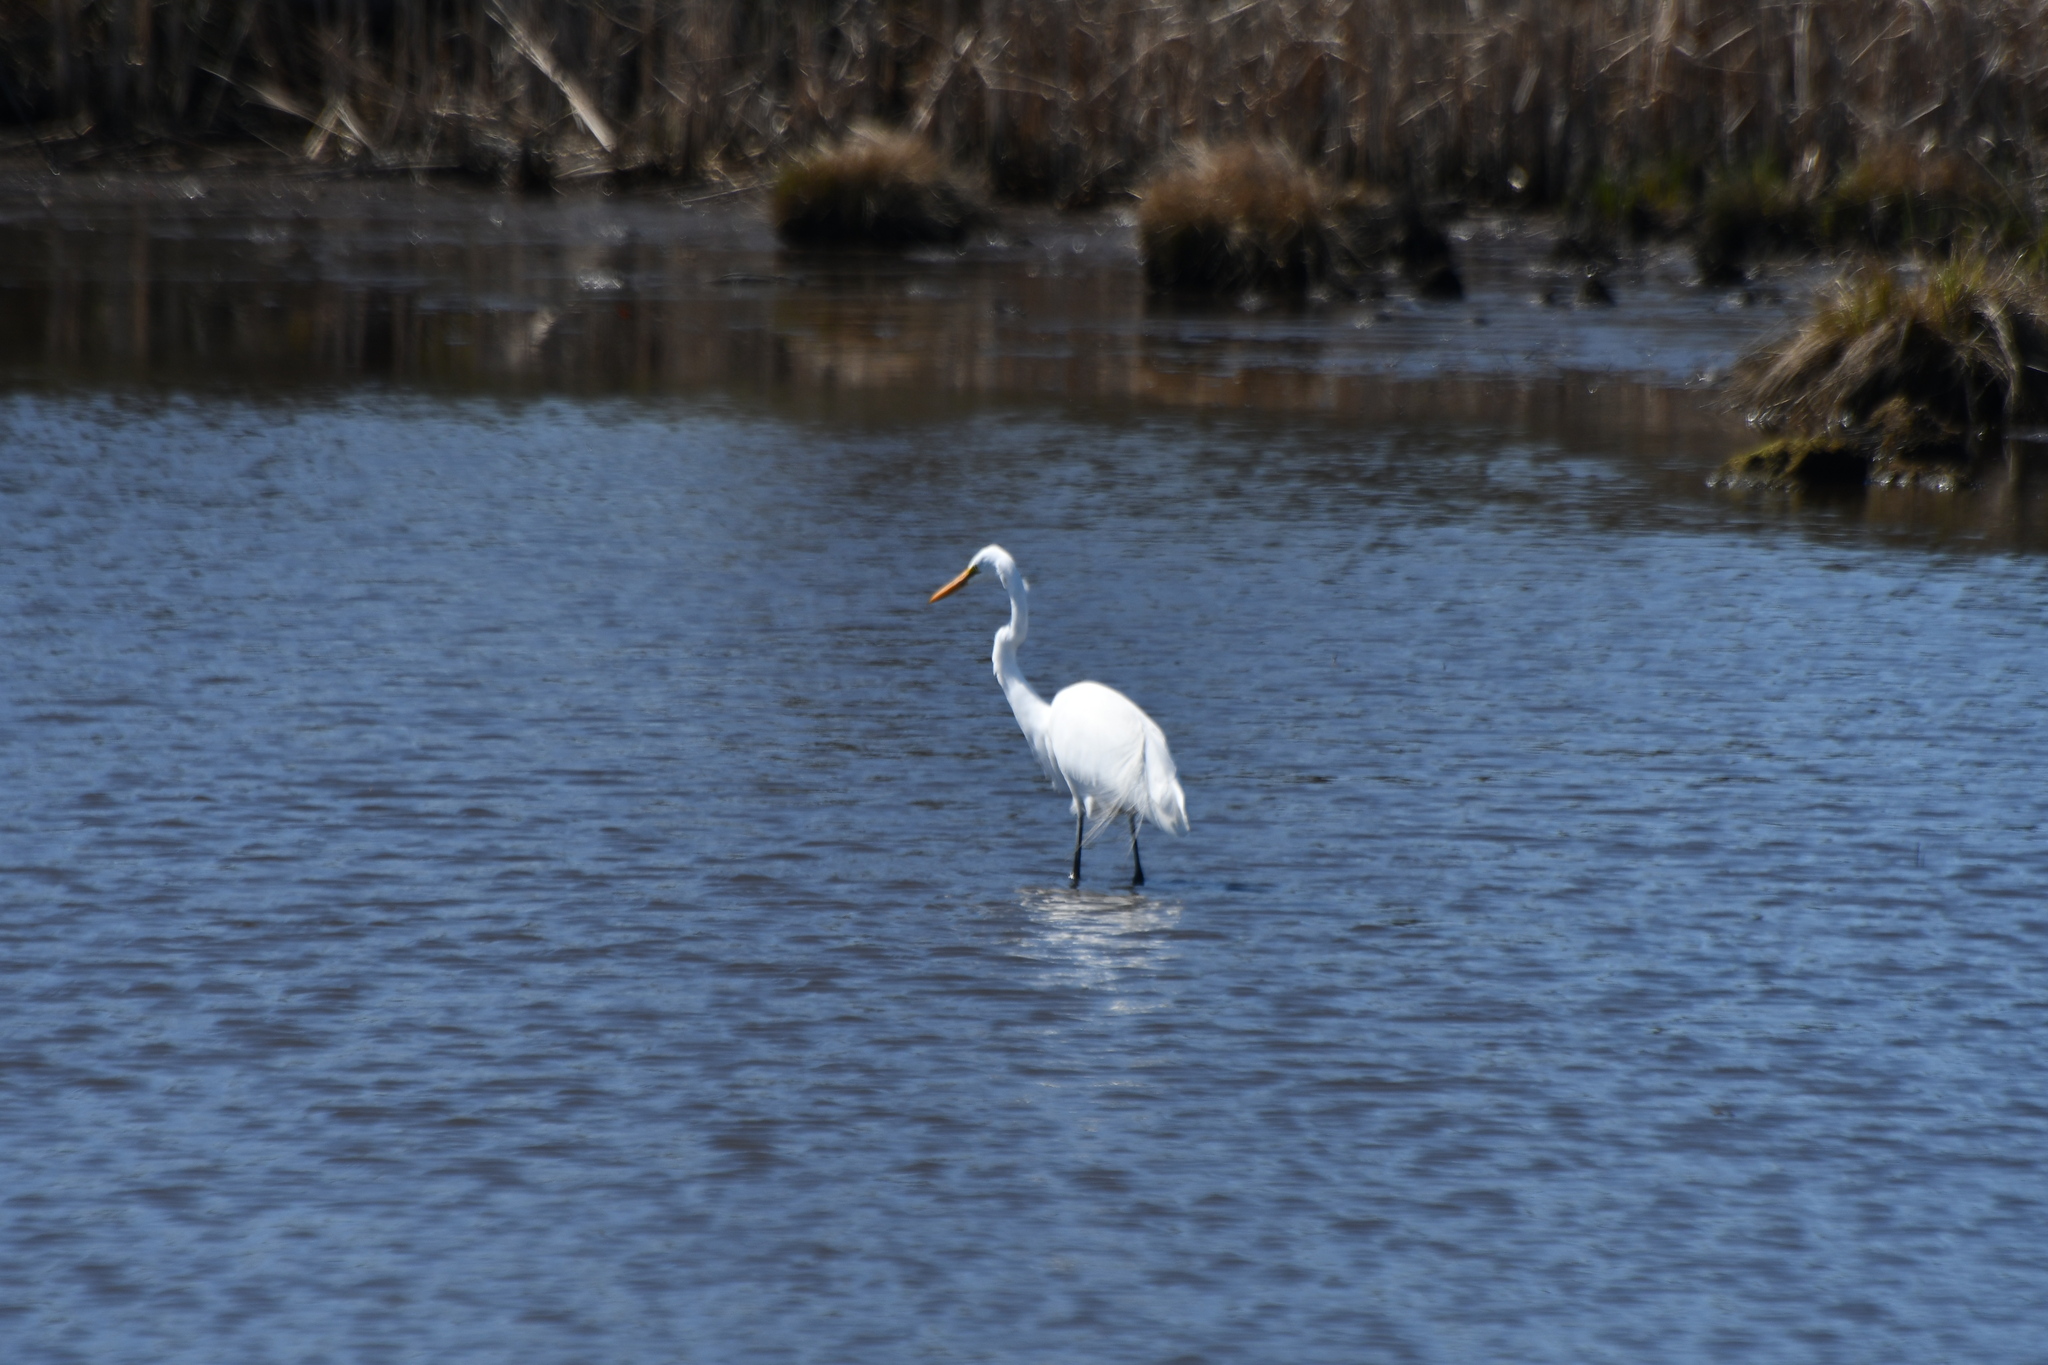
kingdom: Animalia
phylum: Chordata
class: Aves
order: Pelecaniformes
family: Ardeidae
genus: Ardea
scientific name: Ardea alba
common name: Great egret
